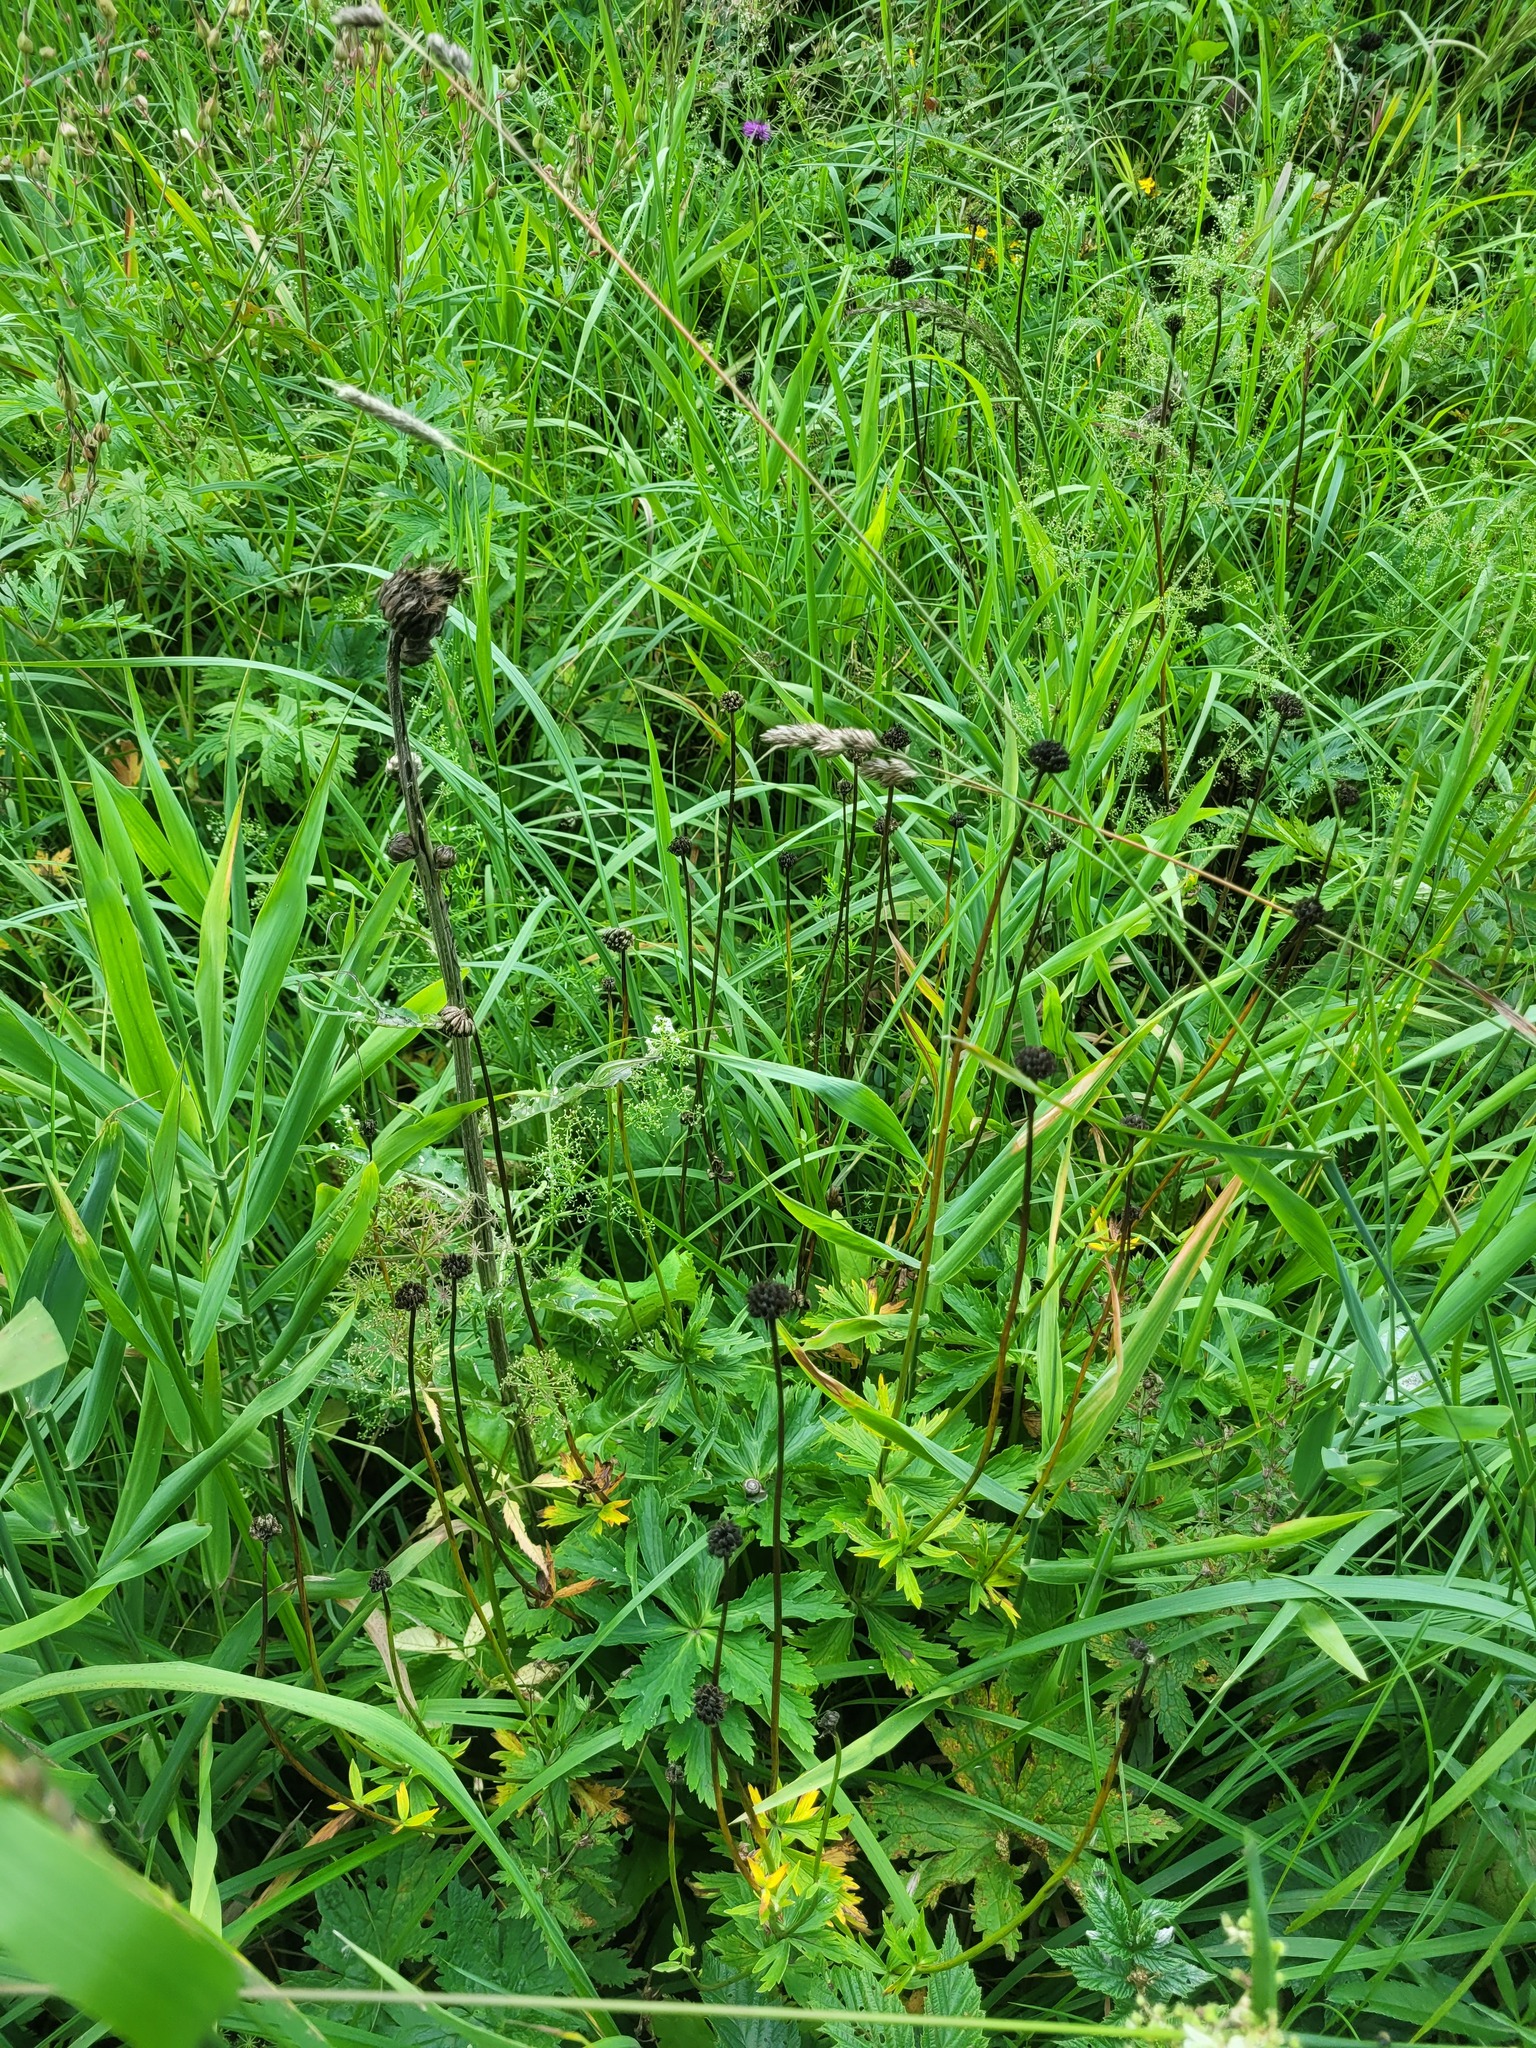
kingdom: Plantae
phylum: Tracheophyta
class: Magnoliopsida
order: Ranunculales
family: Ranunculaceae
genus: Trollius
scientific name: Trollius europaeus
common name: European globeflower
